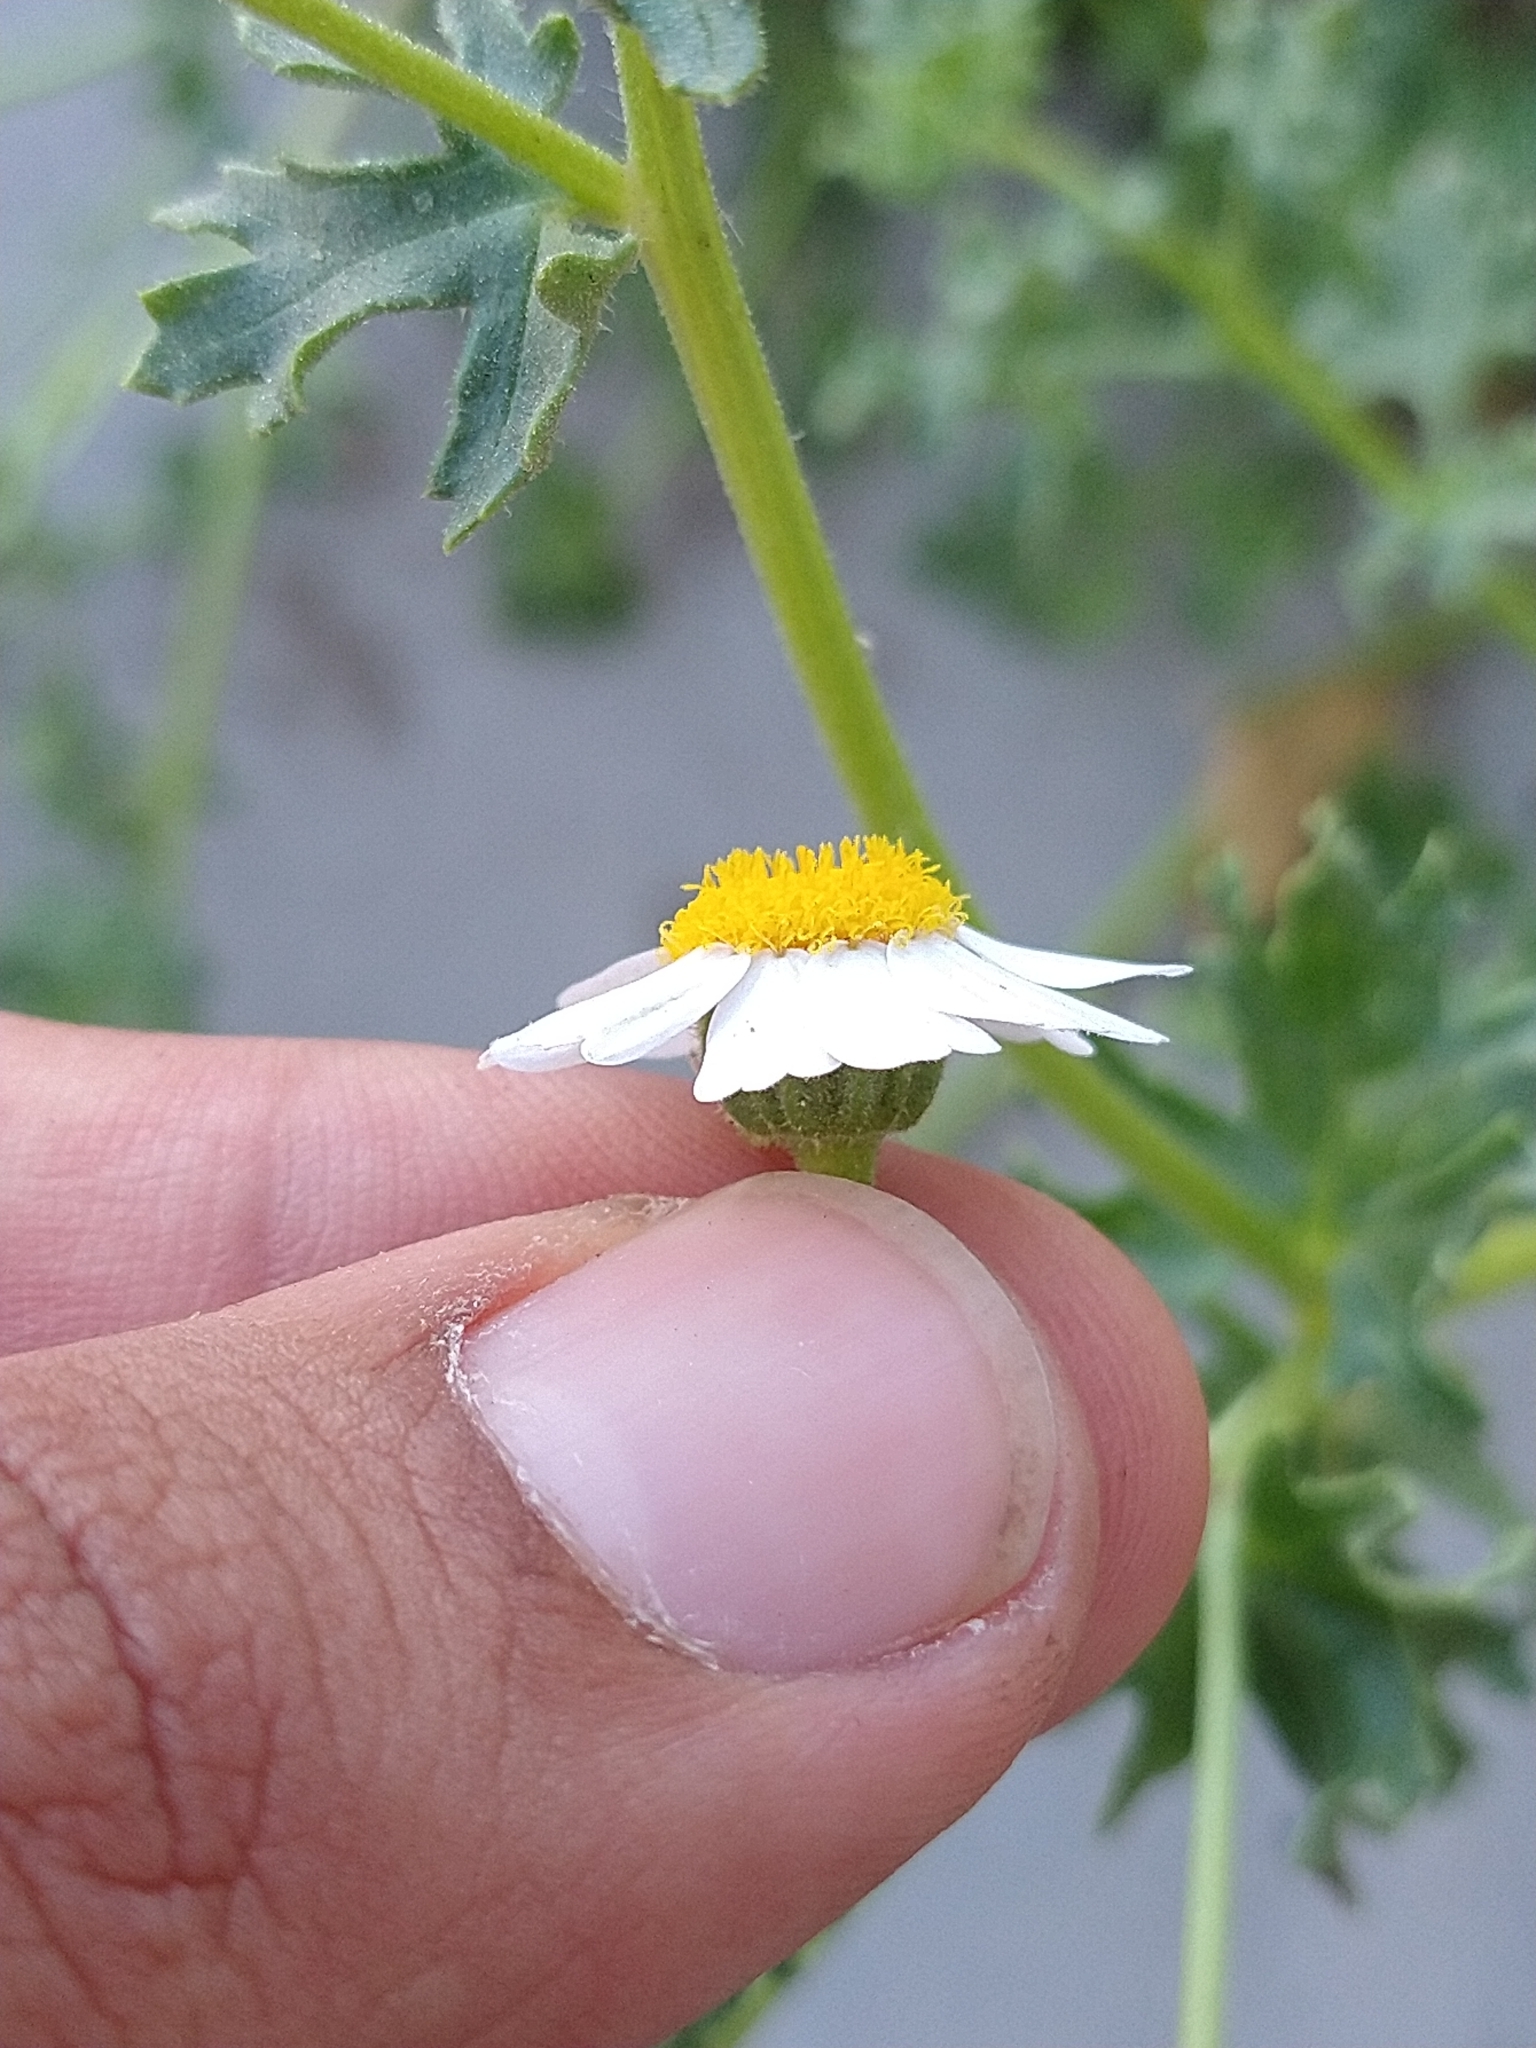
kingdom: Plantae
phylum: Tracheophyta
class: Magnoliopsida
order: Asterales
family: Asteraceae
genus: Perityle
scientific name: Perityle crassifolia
